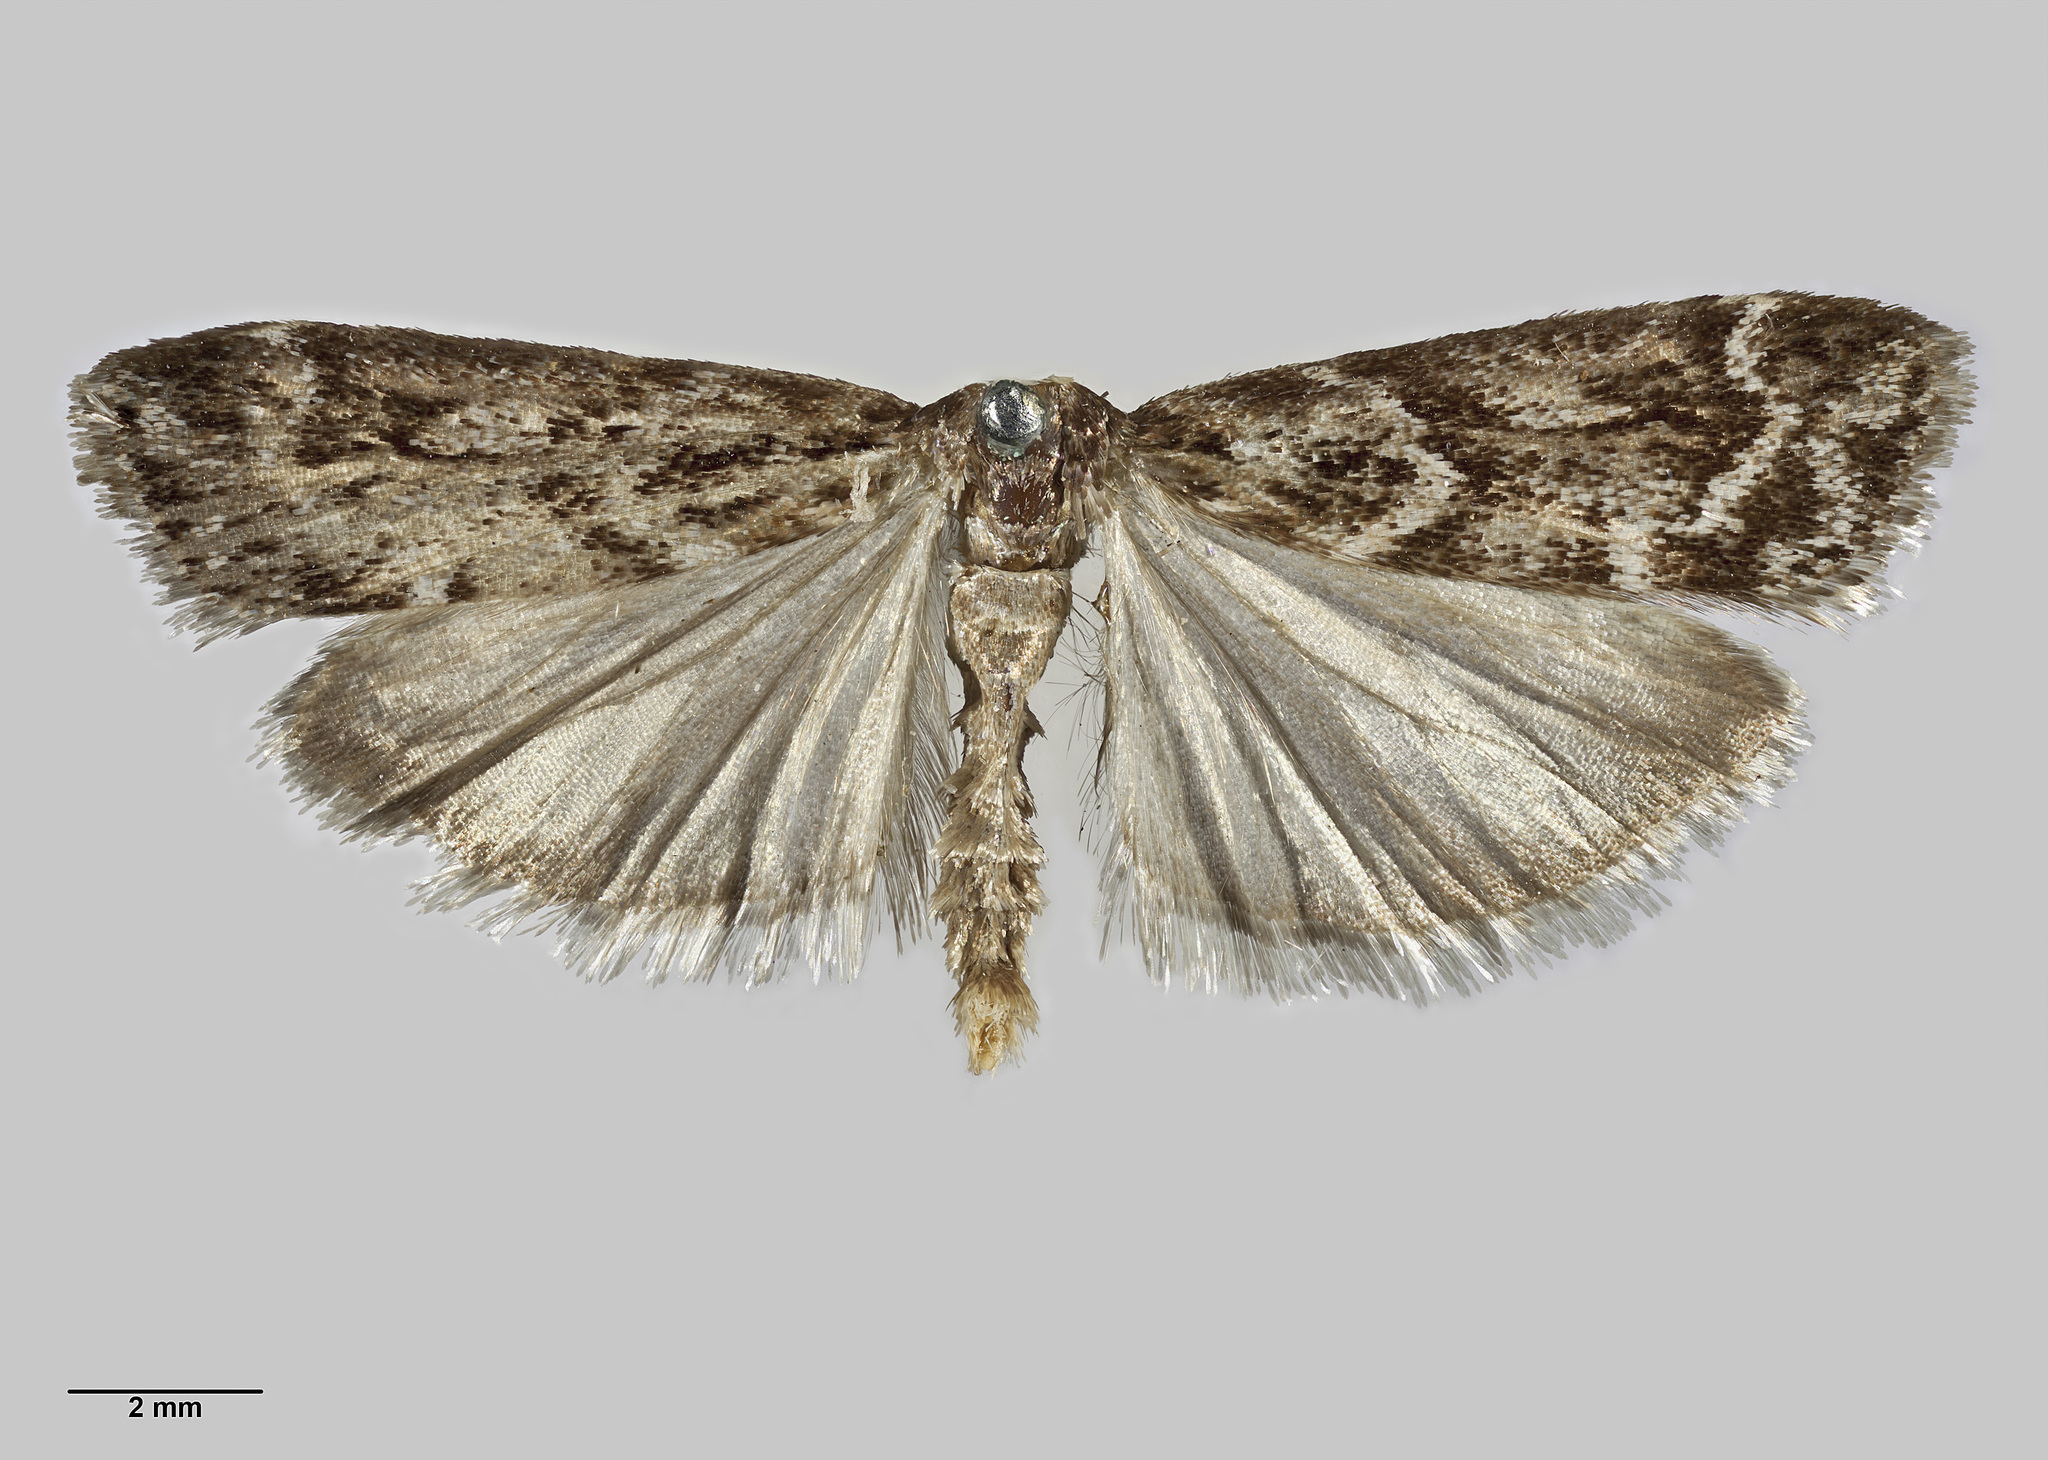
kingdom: Animalia
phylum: Arthropoda
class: Insecta
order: Lepidoptera
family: Crambidae
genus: Scoparia
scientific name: Scoparia illota
